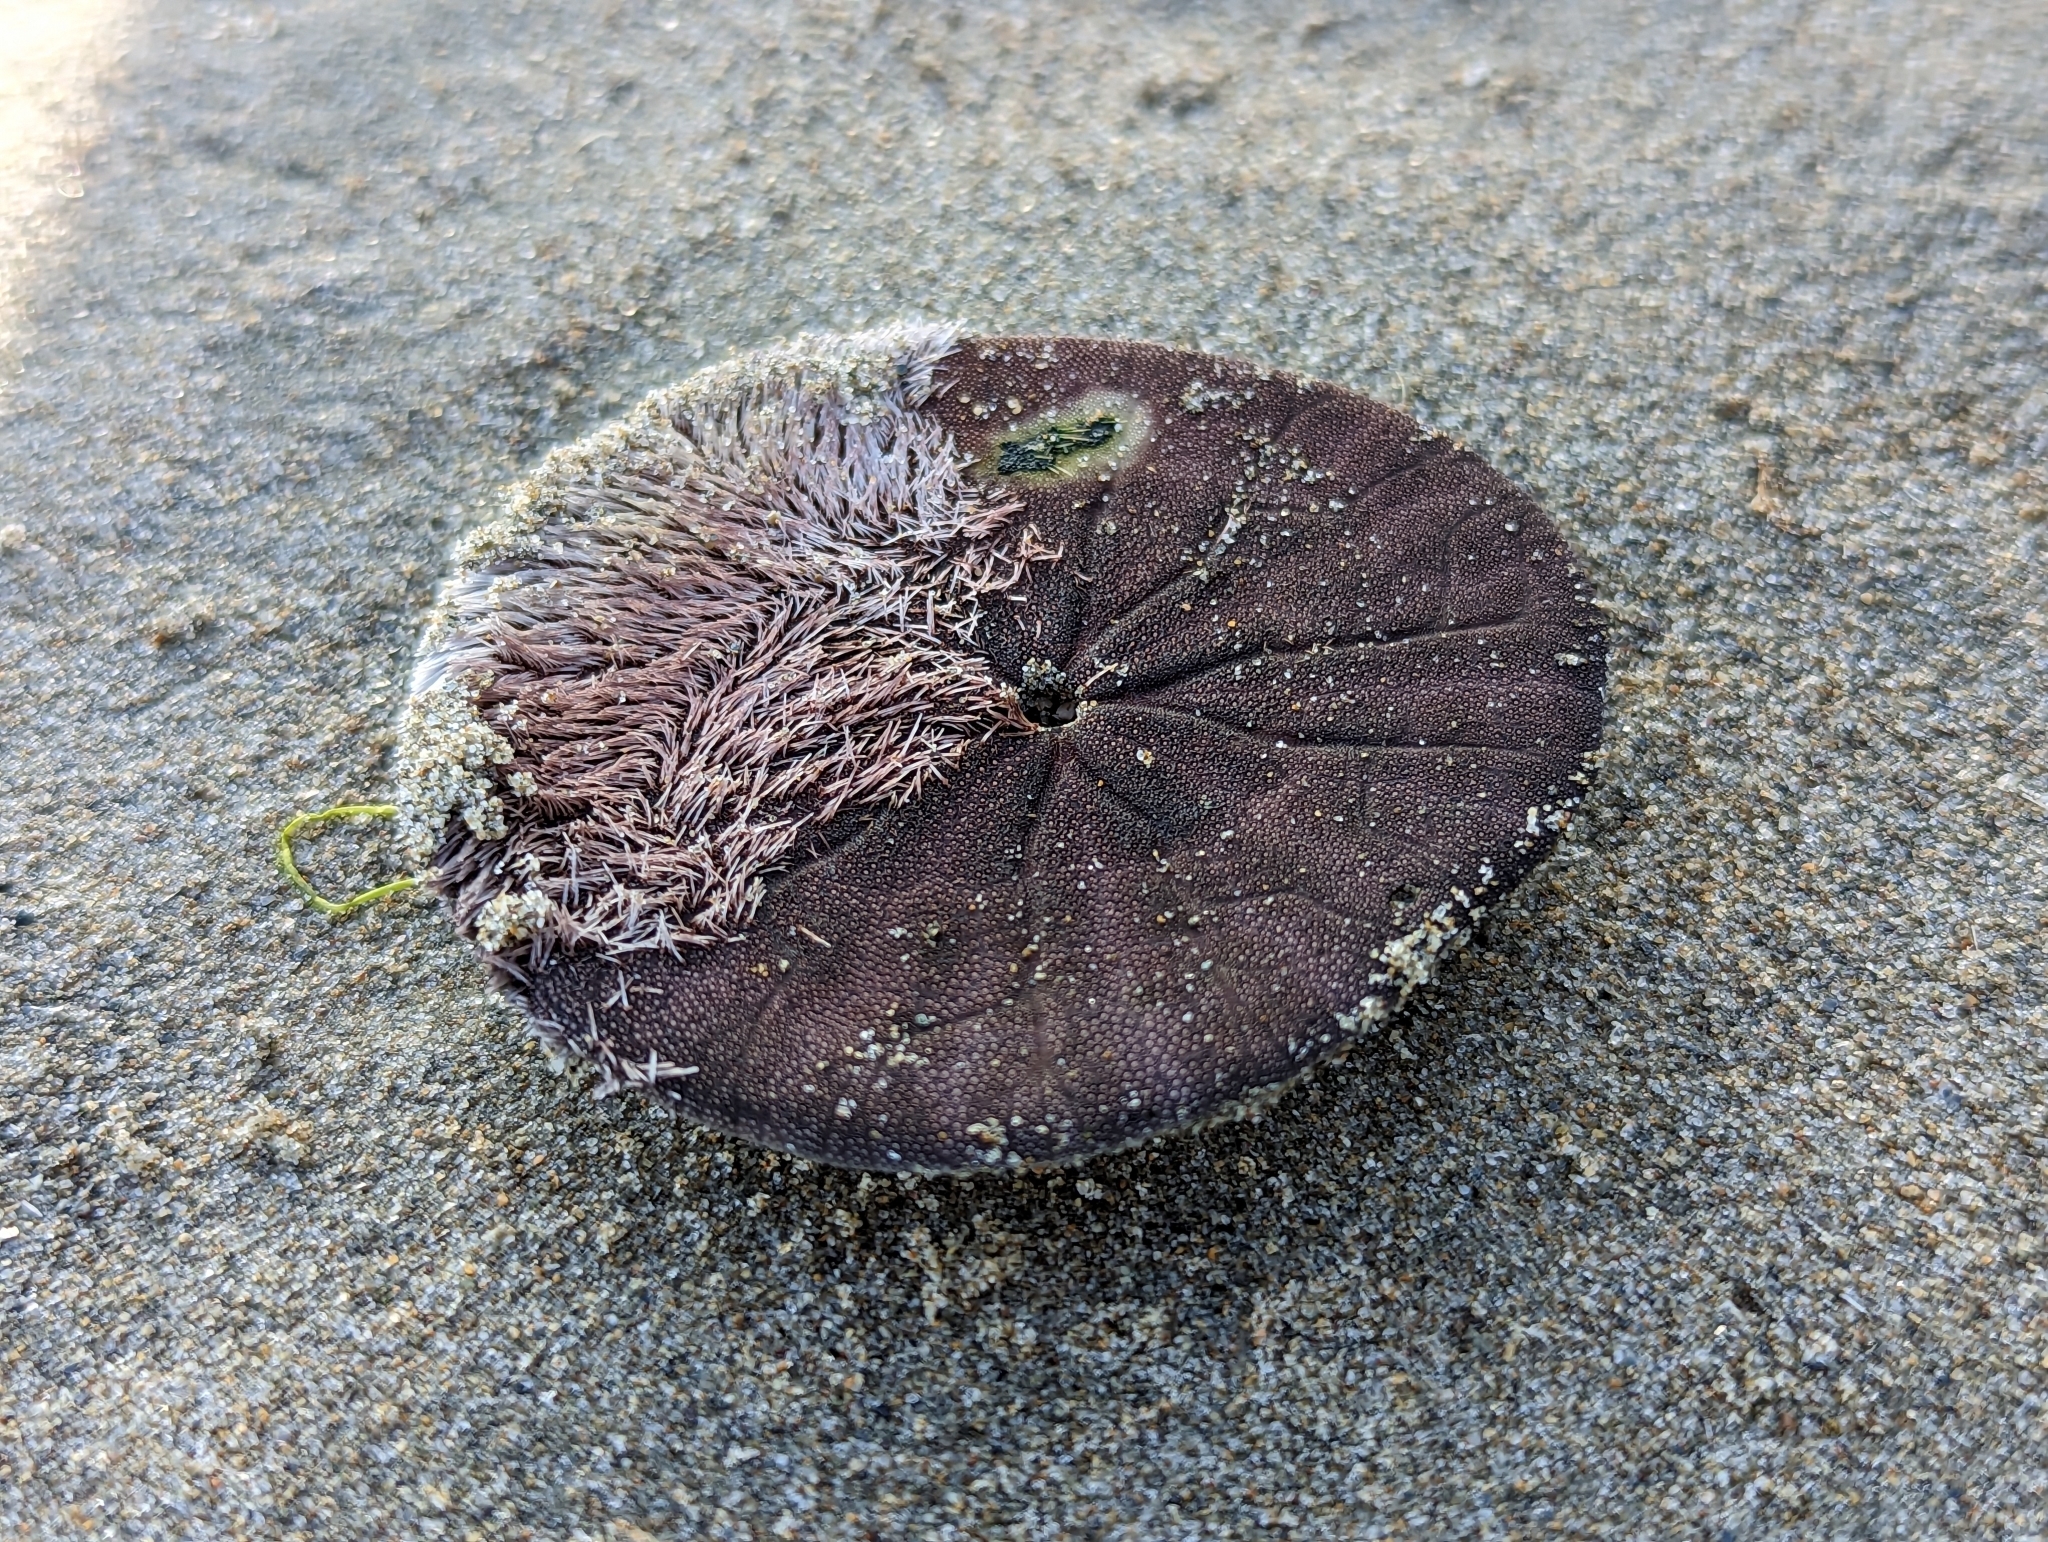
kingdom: Animalia
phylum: Echinodermata
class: Echinoidea
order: Echinolampadacea
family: Dendrasteridae
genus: Dendraster
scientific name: Dendraster excentricus
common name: Eccentric sand dollar sea urchin
